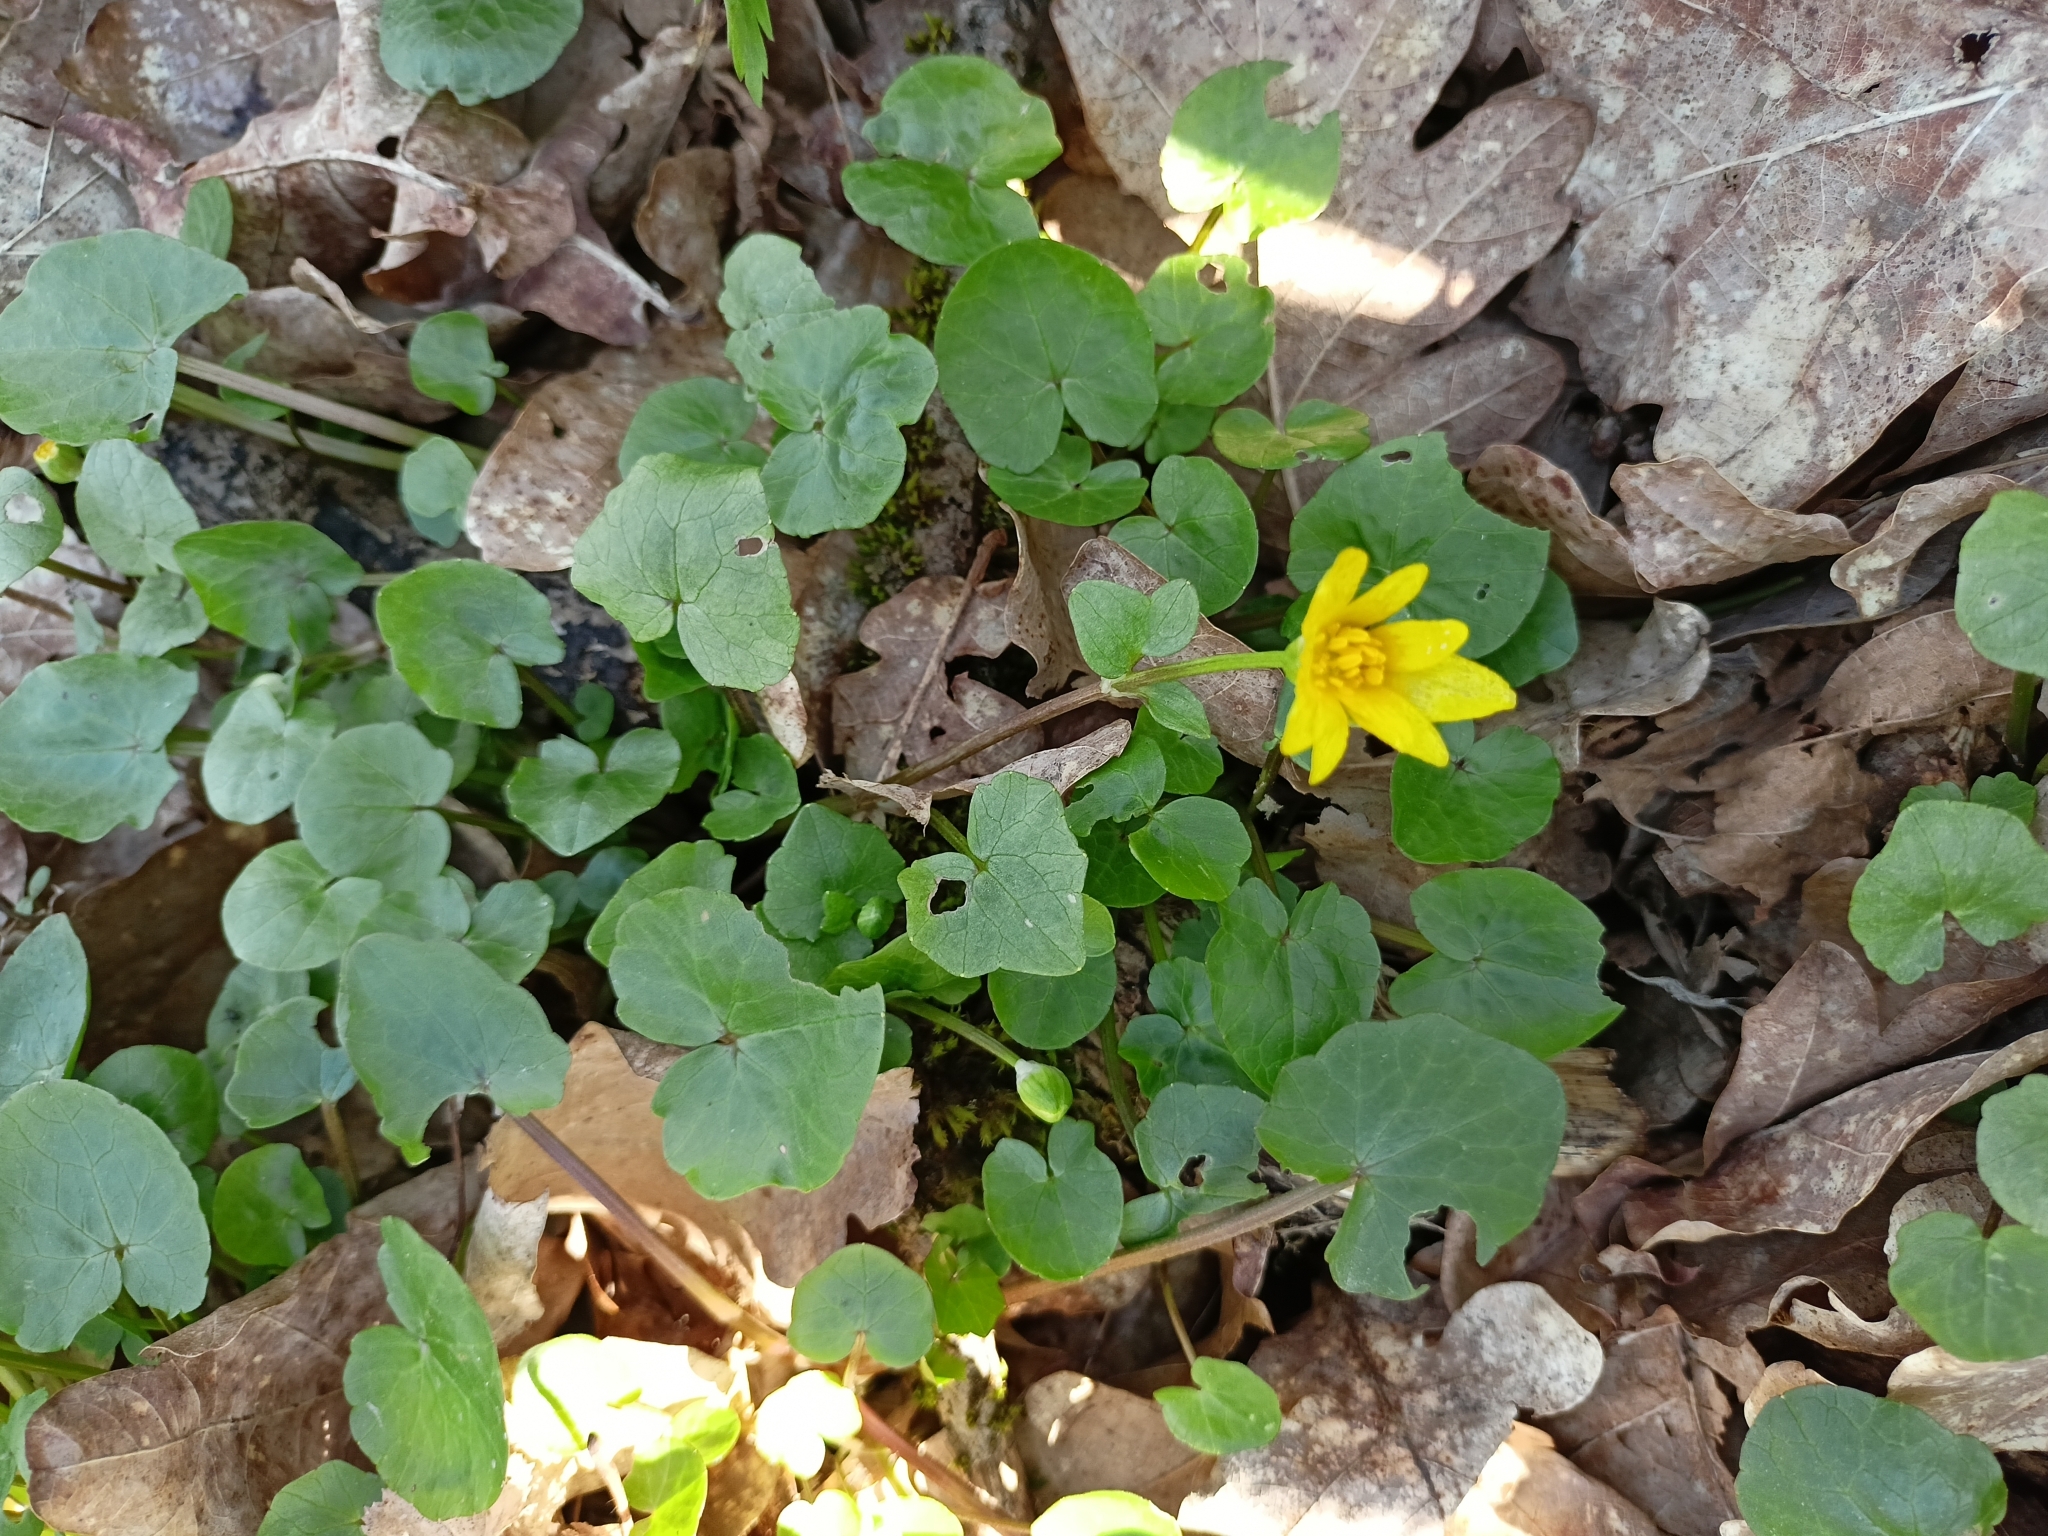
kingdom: Plantae
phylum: Tracheophyta
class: Magnoliopsida
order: Ranunculales
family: Ranunculaceae
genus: Ficaria
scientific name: Ficaria verna
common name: Lesser celandine
